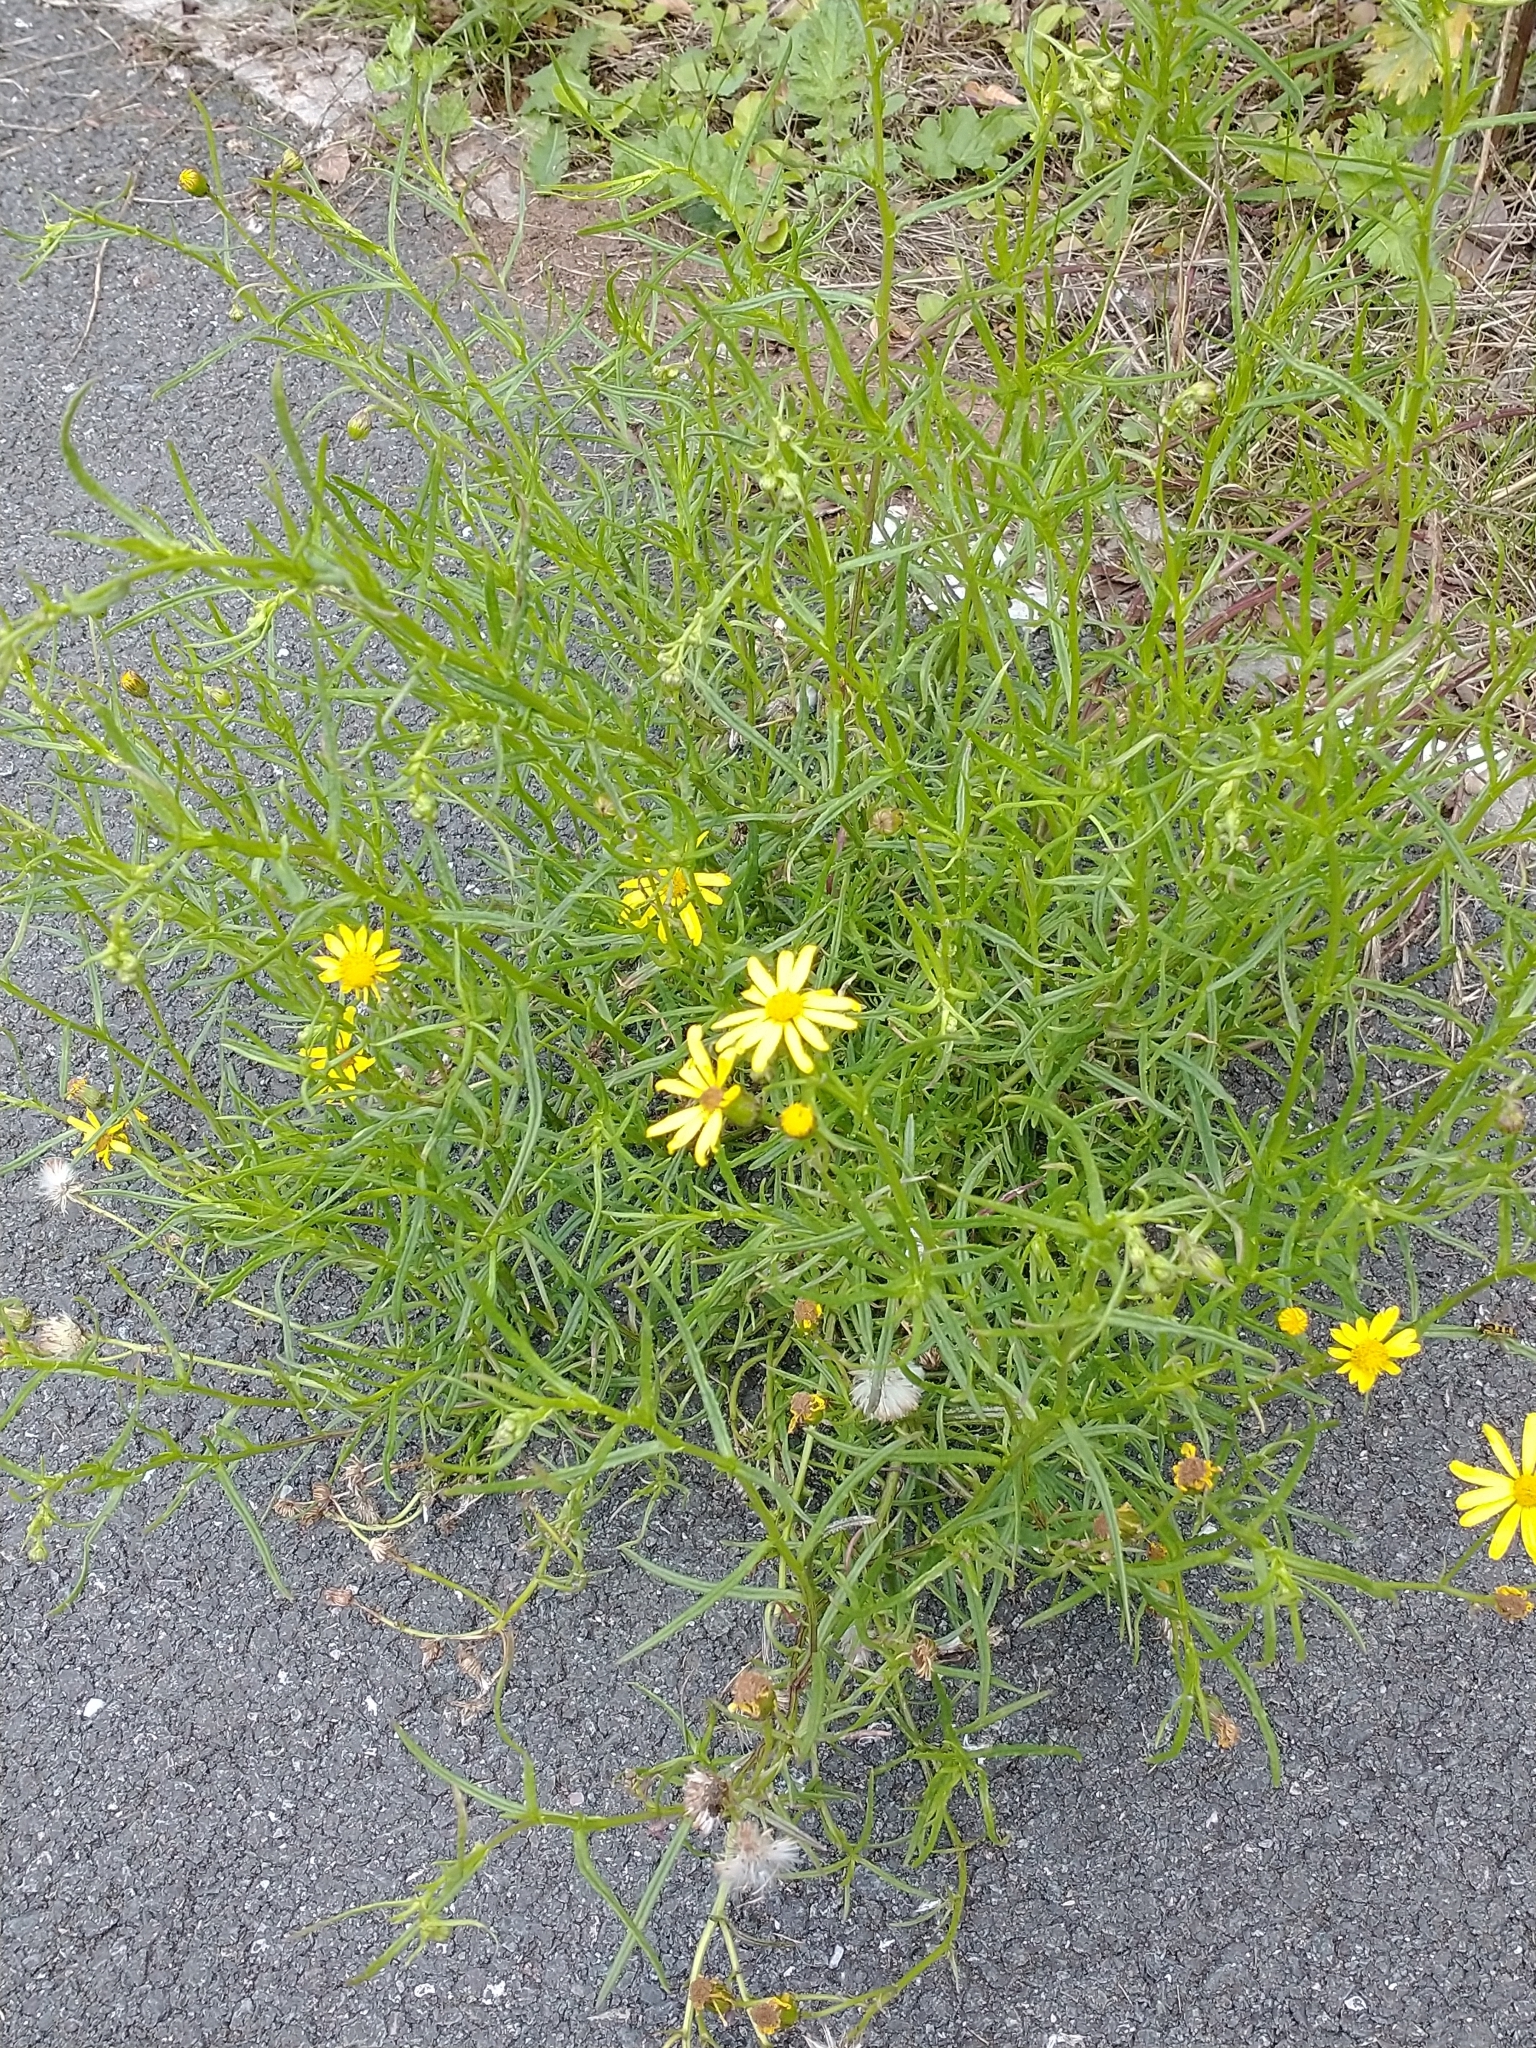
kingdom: Plantae
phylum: Tracheophyta
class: Magnoliopsida
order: Asterales
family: Asteraceae
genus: Senecio
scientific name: Senecio inaequidens
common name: Narrow-leaved ragwort
